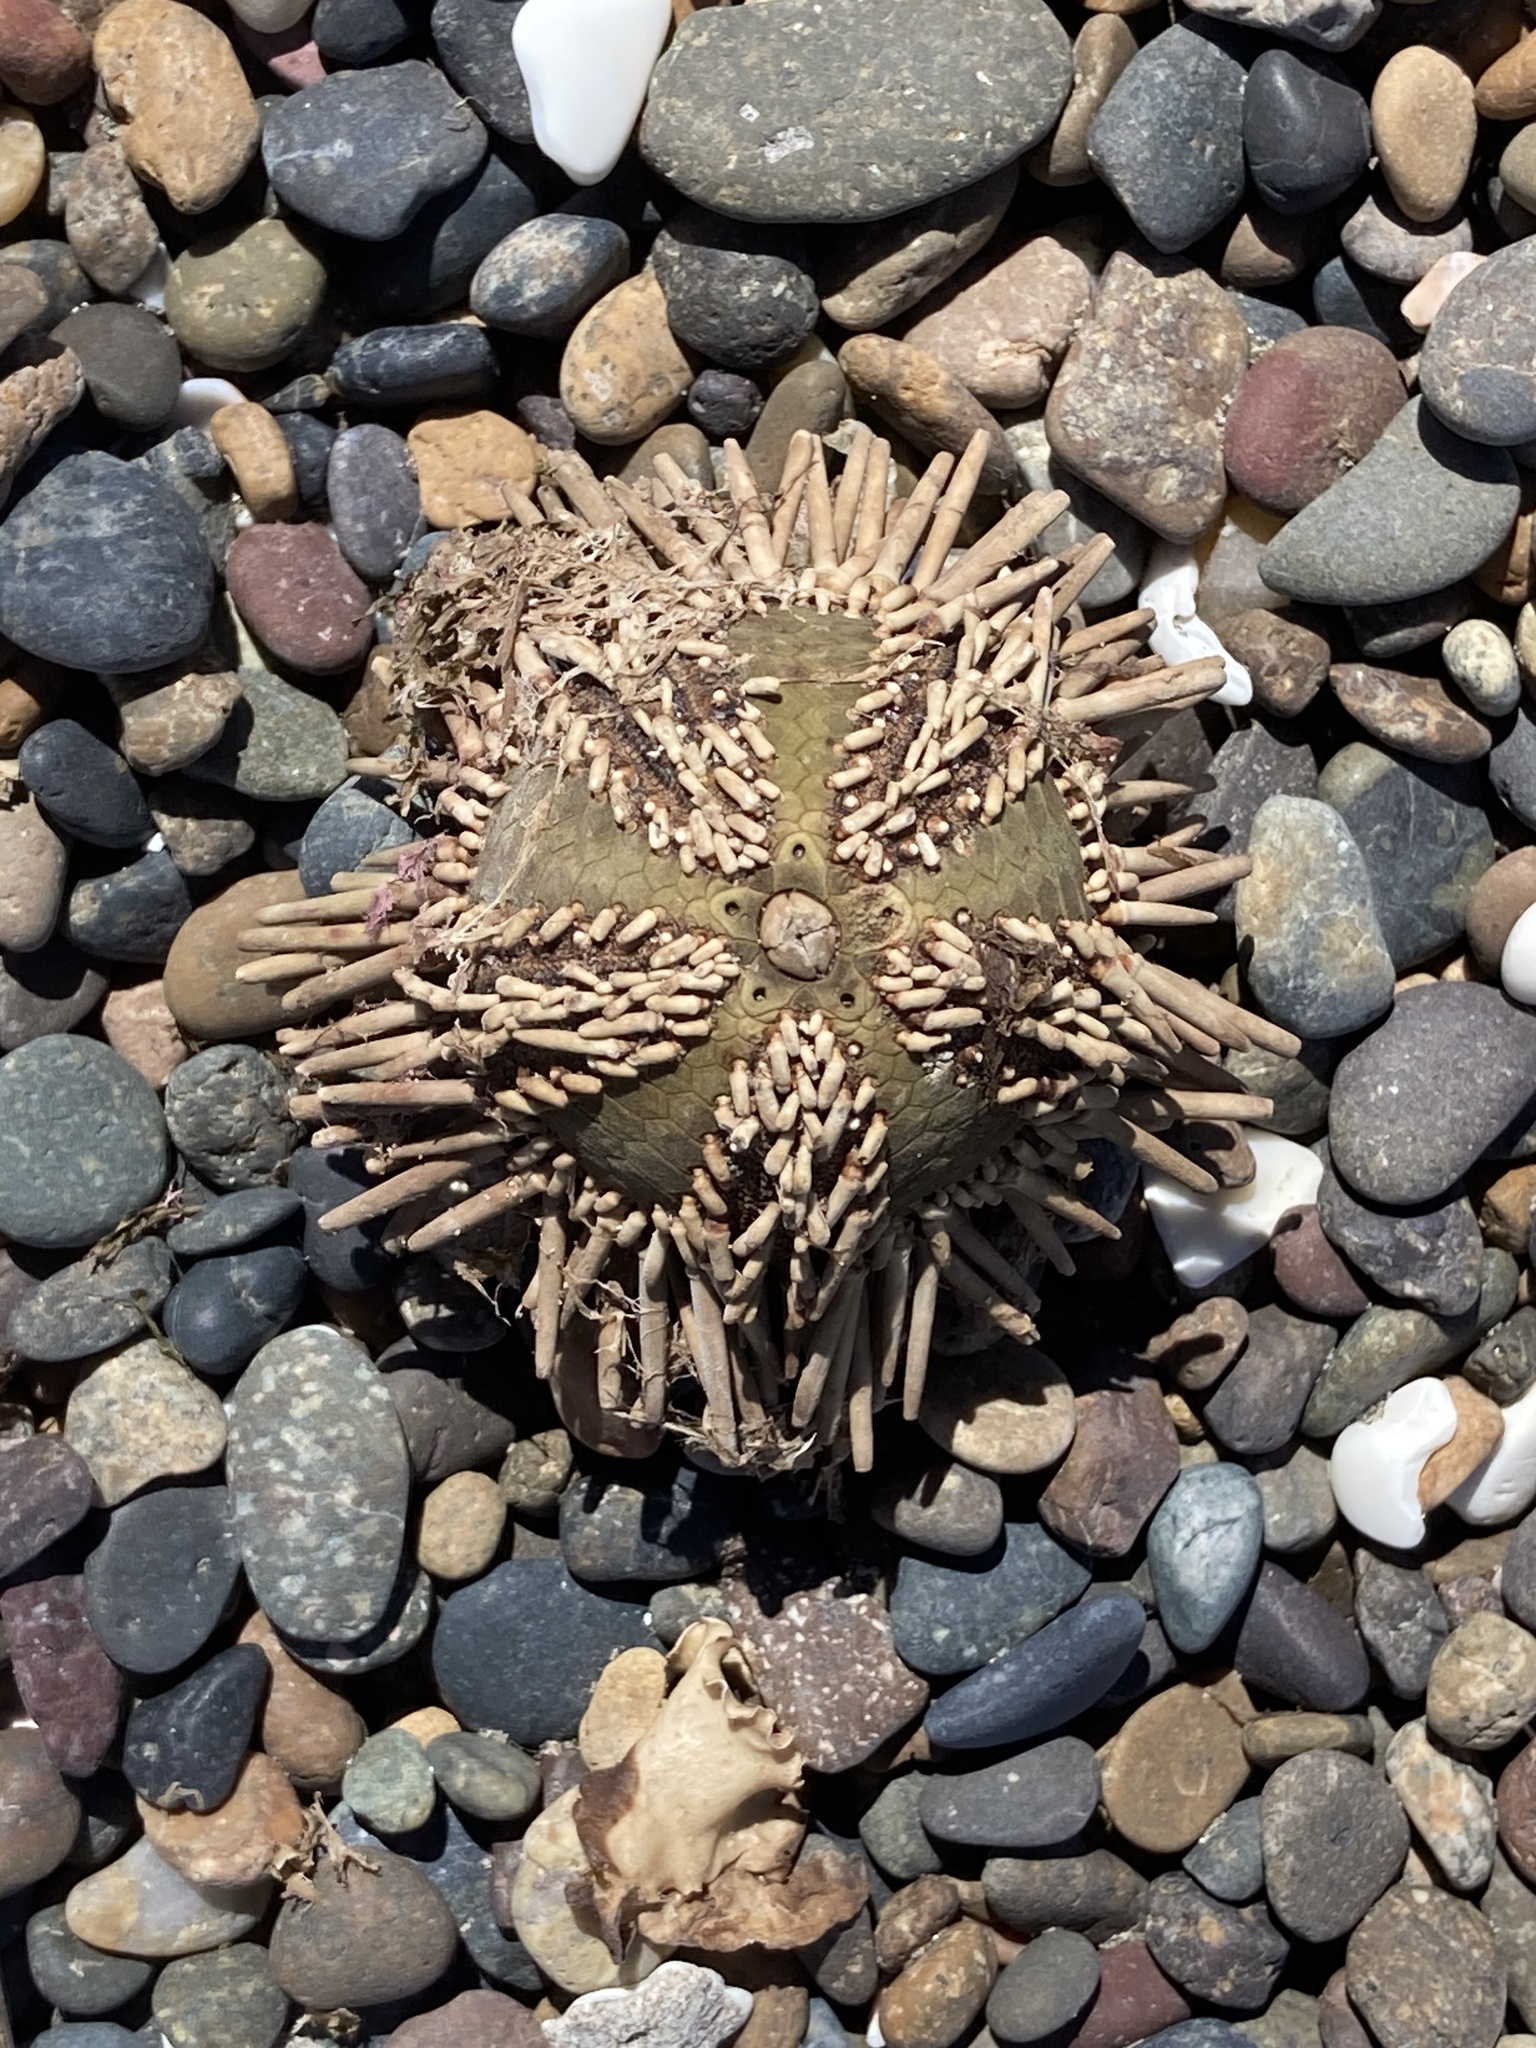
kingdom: Animalia
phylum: Echinodermata
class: Echinoidea
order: Arbacioida
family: Arbaciidae
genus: Arbacia
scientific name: Arbacia dufresnii
